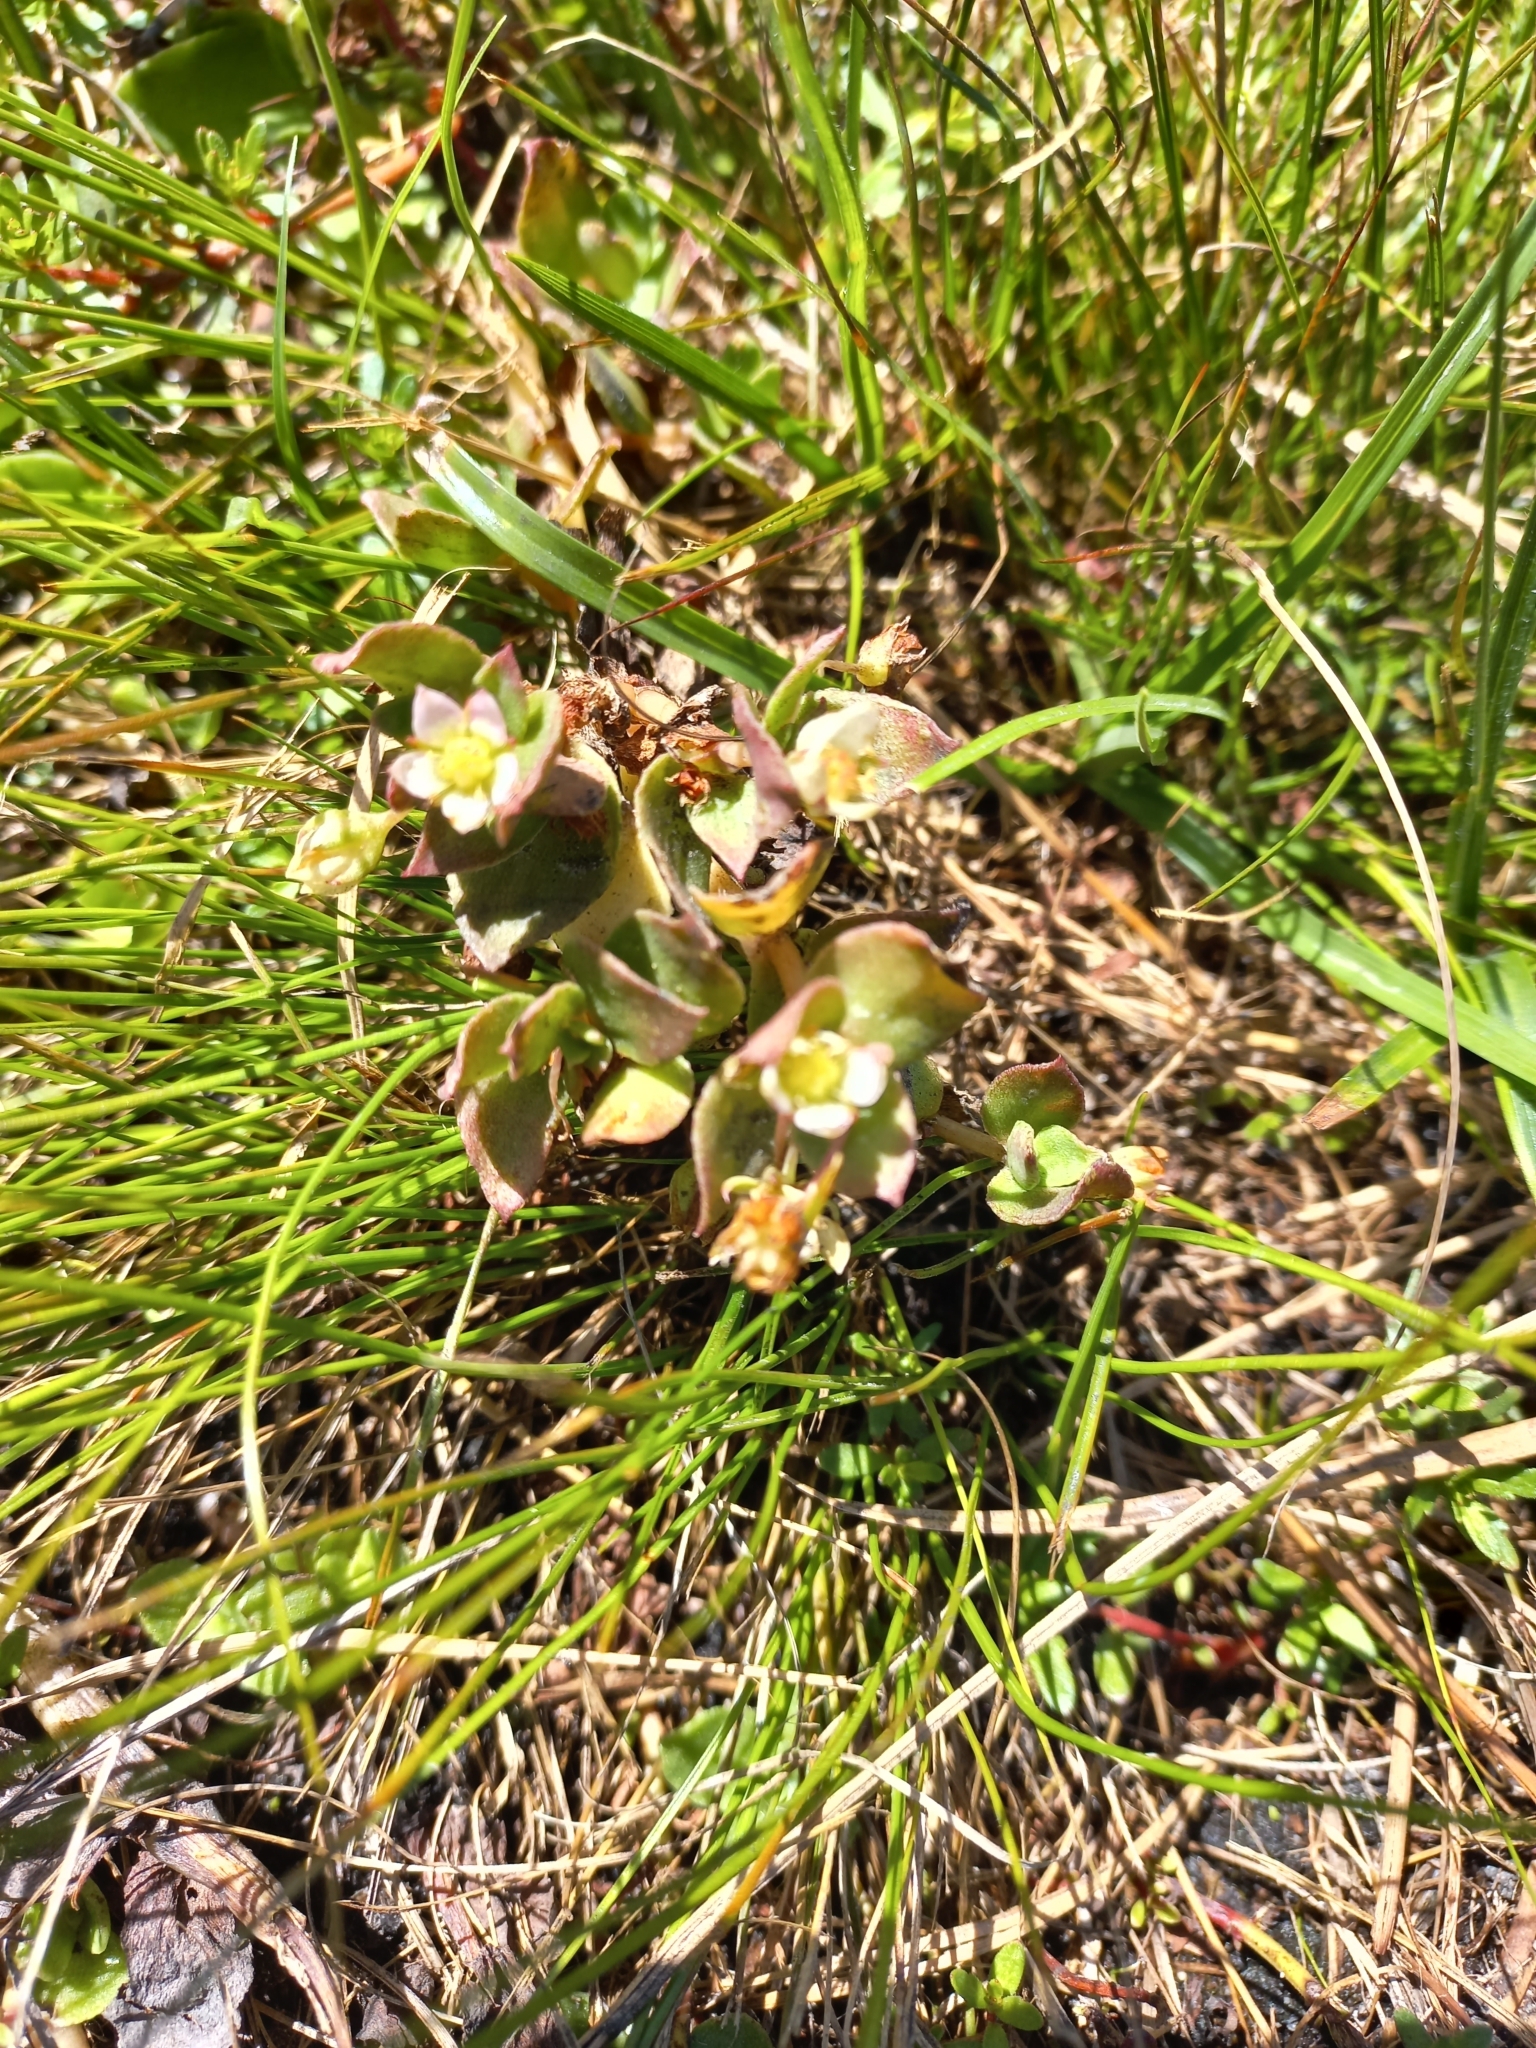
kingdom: Plantae
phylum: Tracheophyta
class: Magnoliopsida
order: Saxifragales
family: Crassulaceae
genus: Crassula
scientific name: Crassula pellucida
